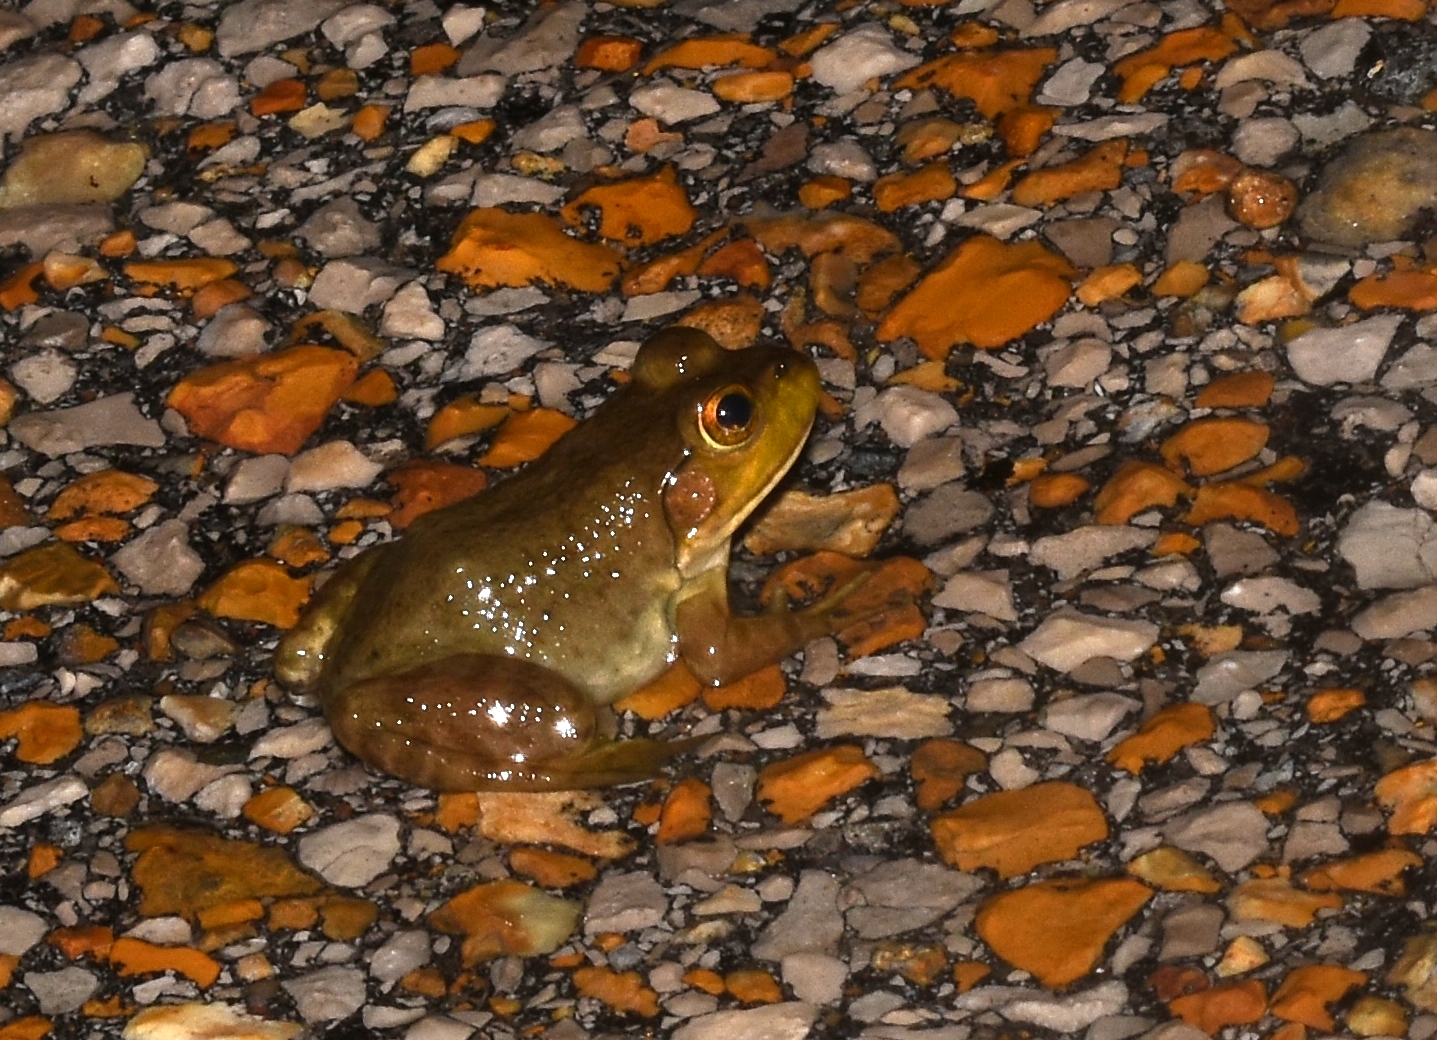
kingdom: Animalia
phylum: Chordata
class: Amphibia
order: Anura
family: Ranidae
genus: Lithobates
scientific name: Lithobates catesbeianus
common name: American bullfrog
